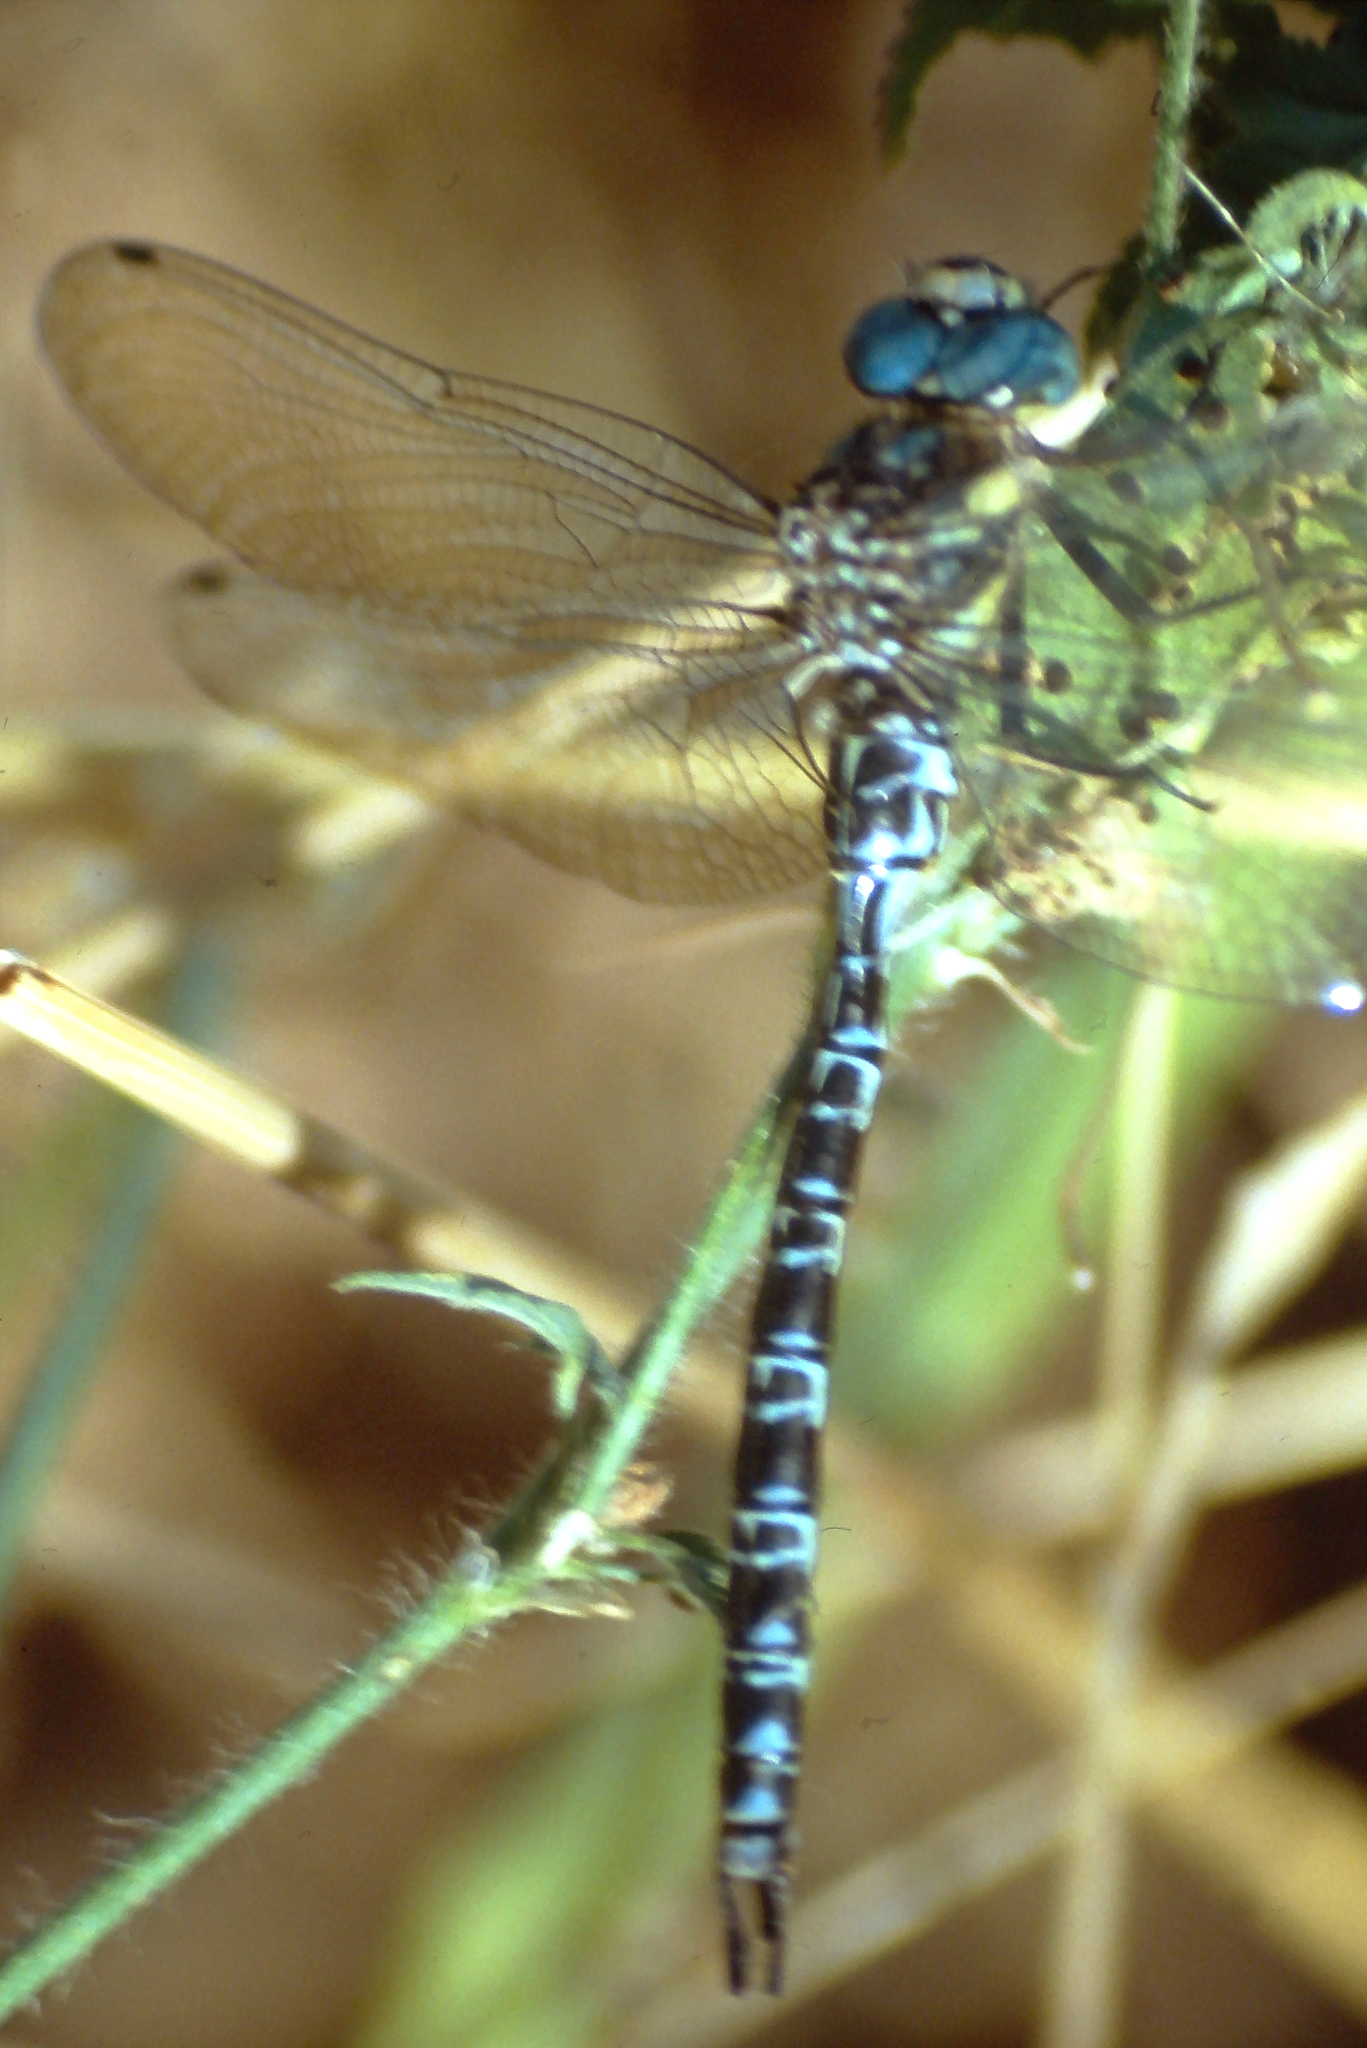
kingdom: Animalia
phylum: Arthropoda
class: Insecta
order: Odonata
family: Aeshnidae
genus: Caliaeschna
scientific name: Caliaeschna microstigma
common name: Eastern spectre
